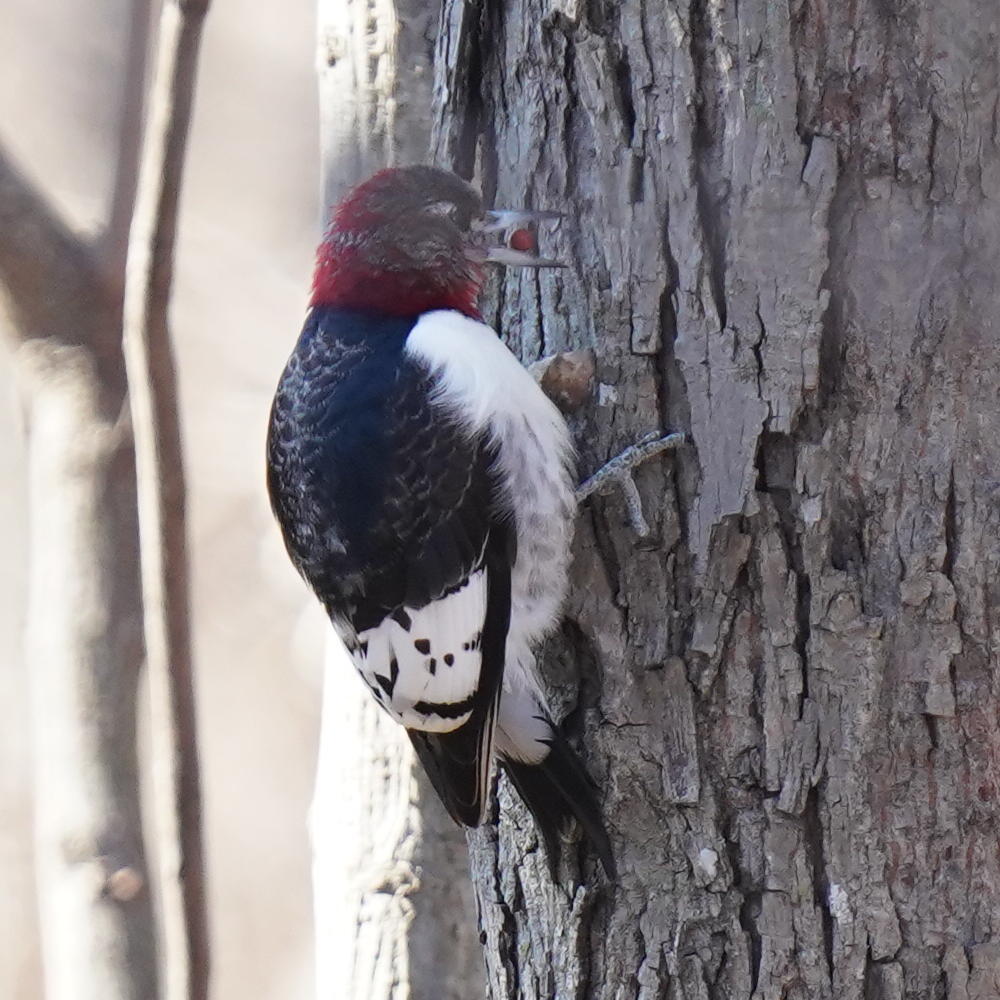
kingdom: Animalia
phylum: Chordata
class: Aves
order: Piciformes
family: Picidae
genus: Melanerpes
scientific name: Melanerpes erythrocephalus
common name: Red-headed woodpecker
